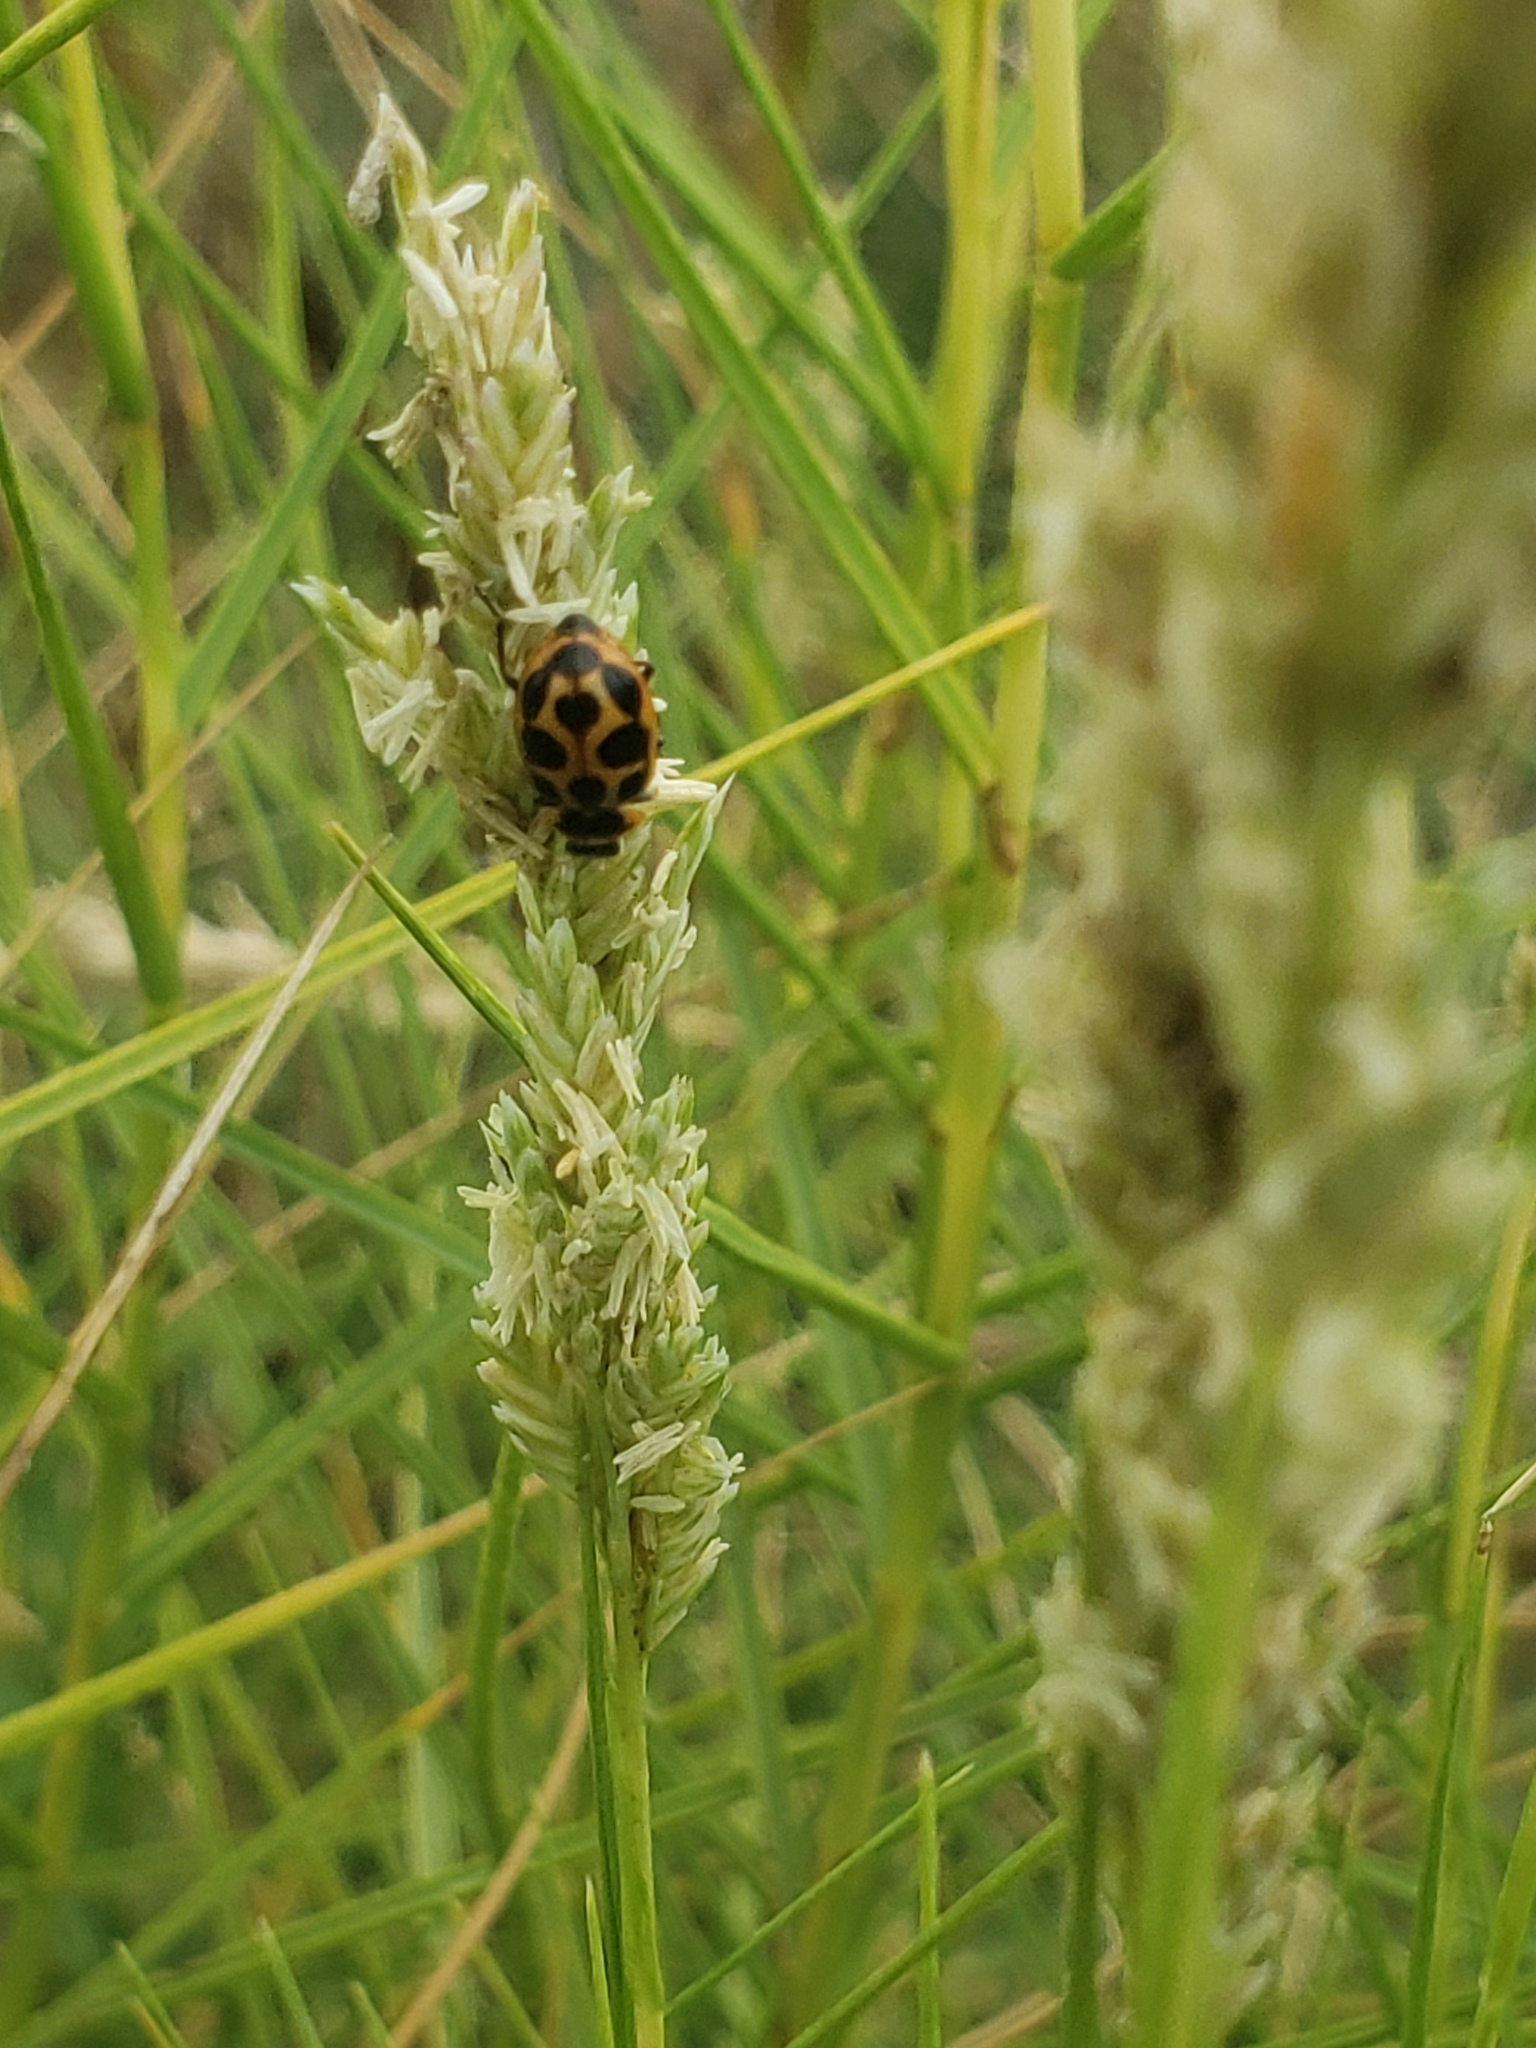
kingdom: Animalia
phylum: Arthropoda
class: Insecta
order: Coleoptera
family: Coccinellidae
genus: Naemia
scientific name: Naemia seriata
